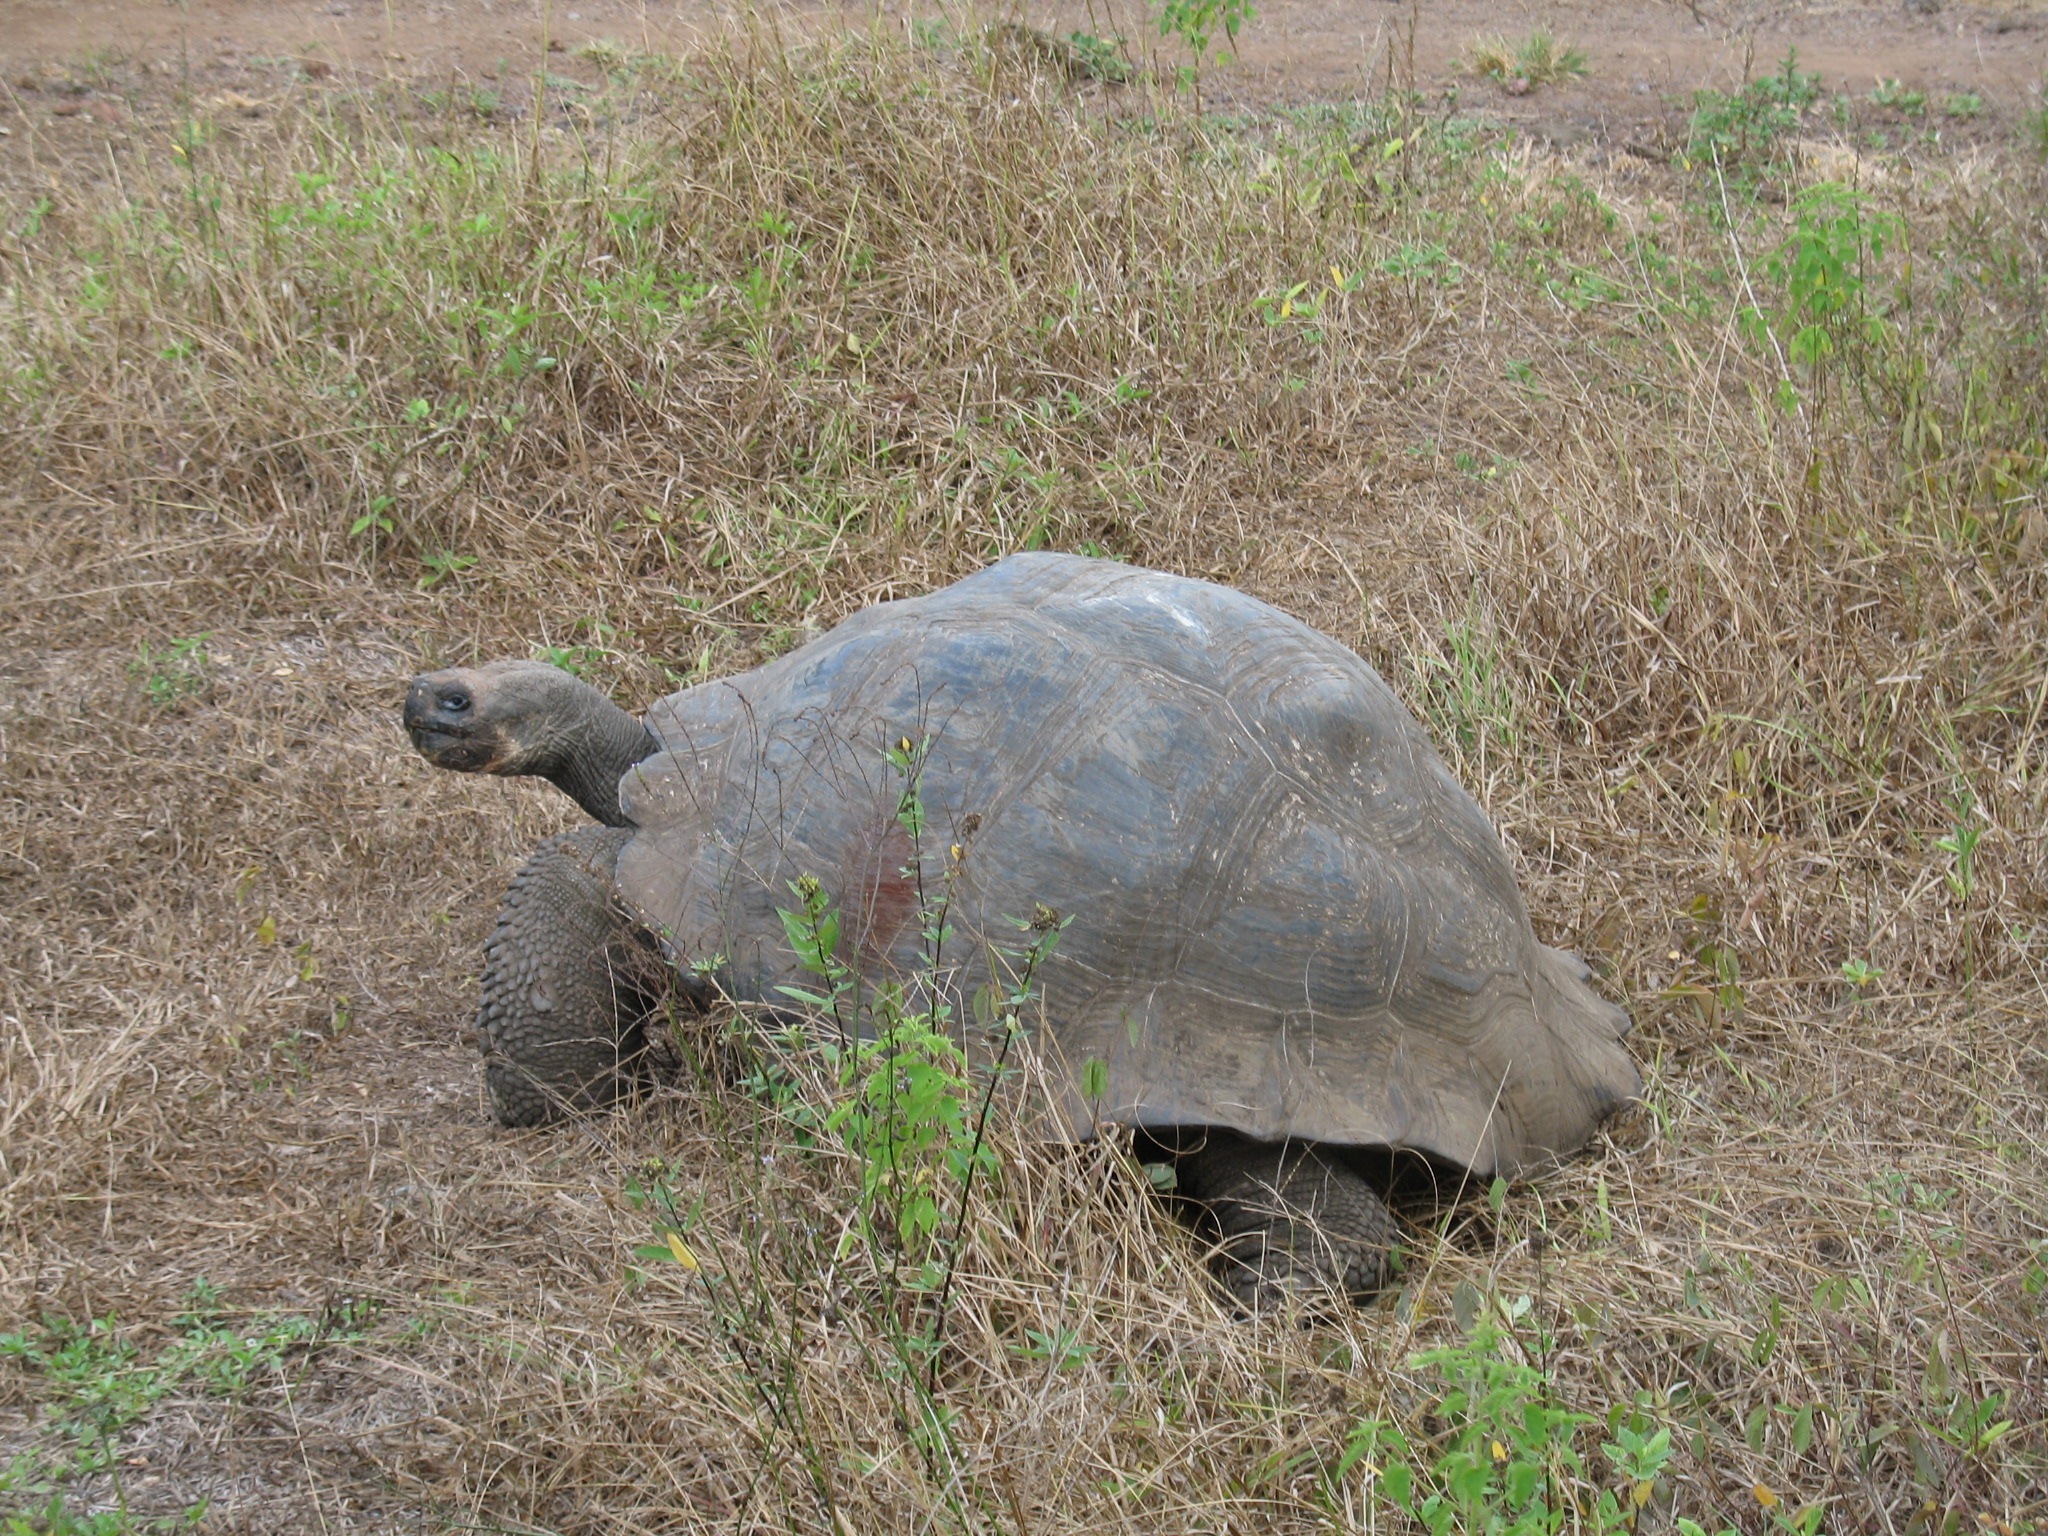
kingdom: Animalia
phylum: Chordata
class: Testudines
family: Testudinidae
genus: Chelonoidis
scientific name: Chelonoidis porteri
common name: Indefatigable island giant tortoise
